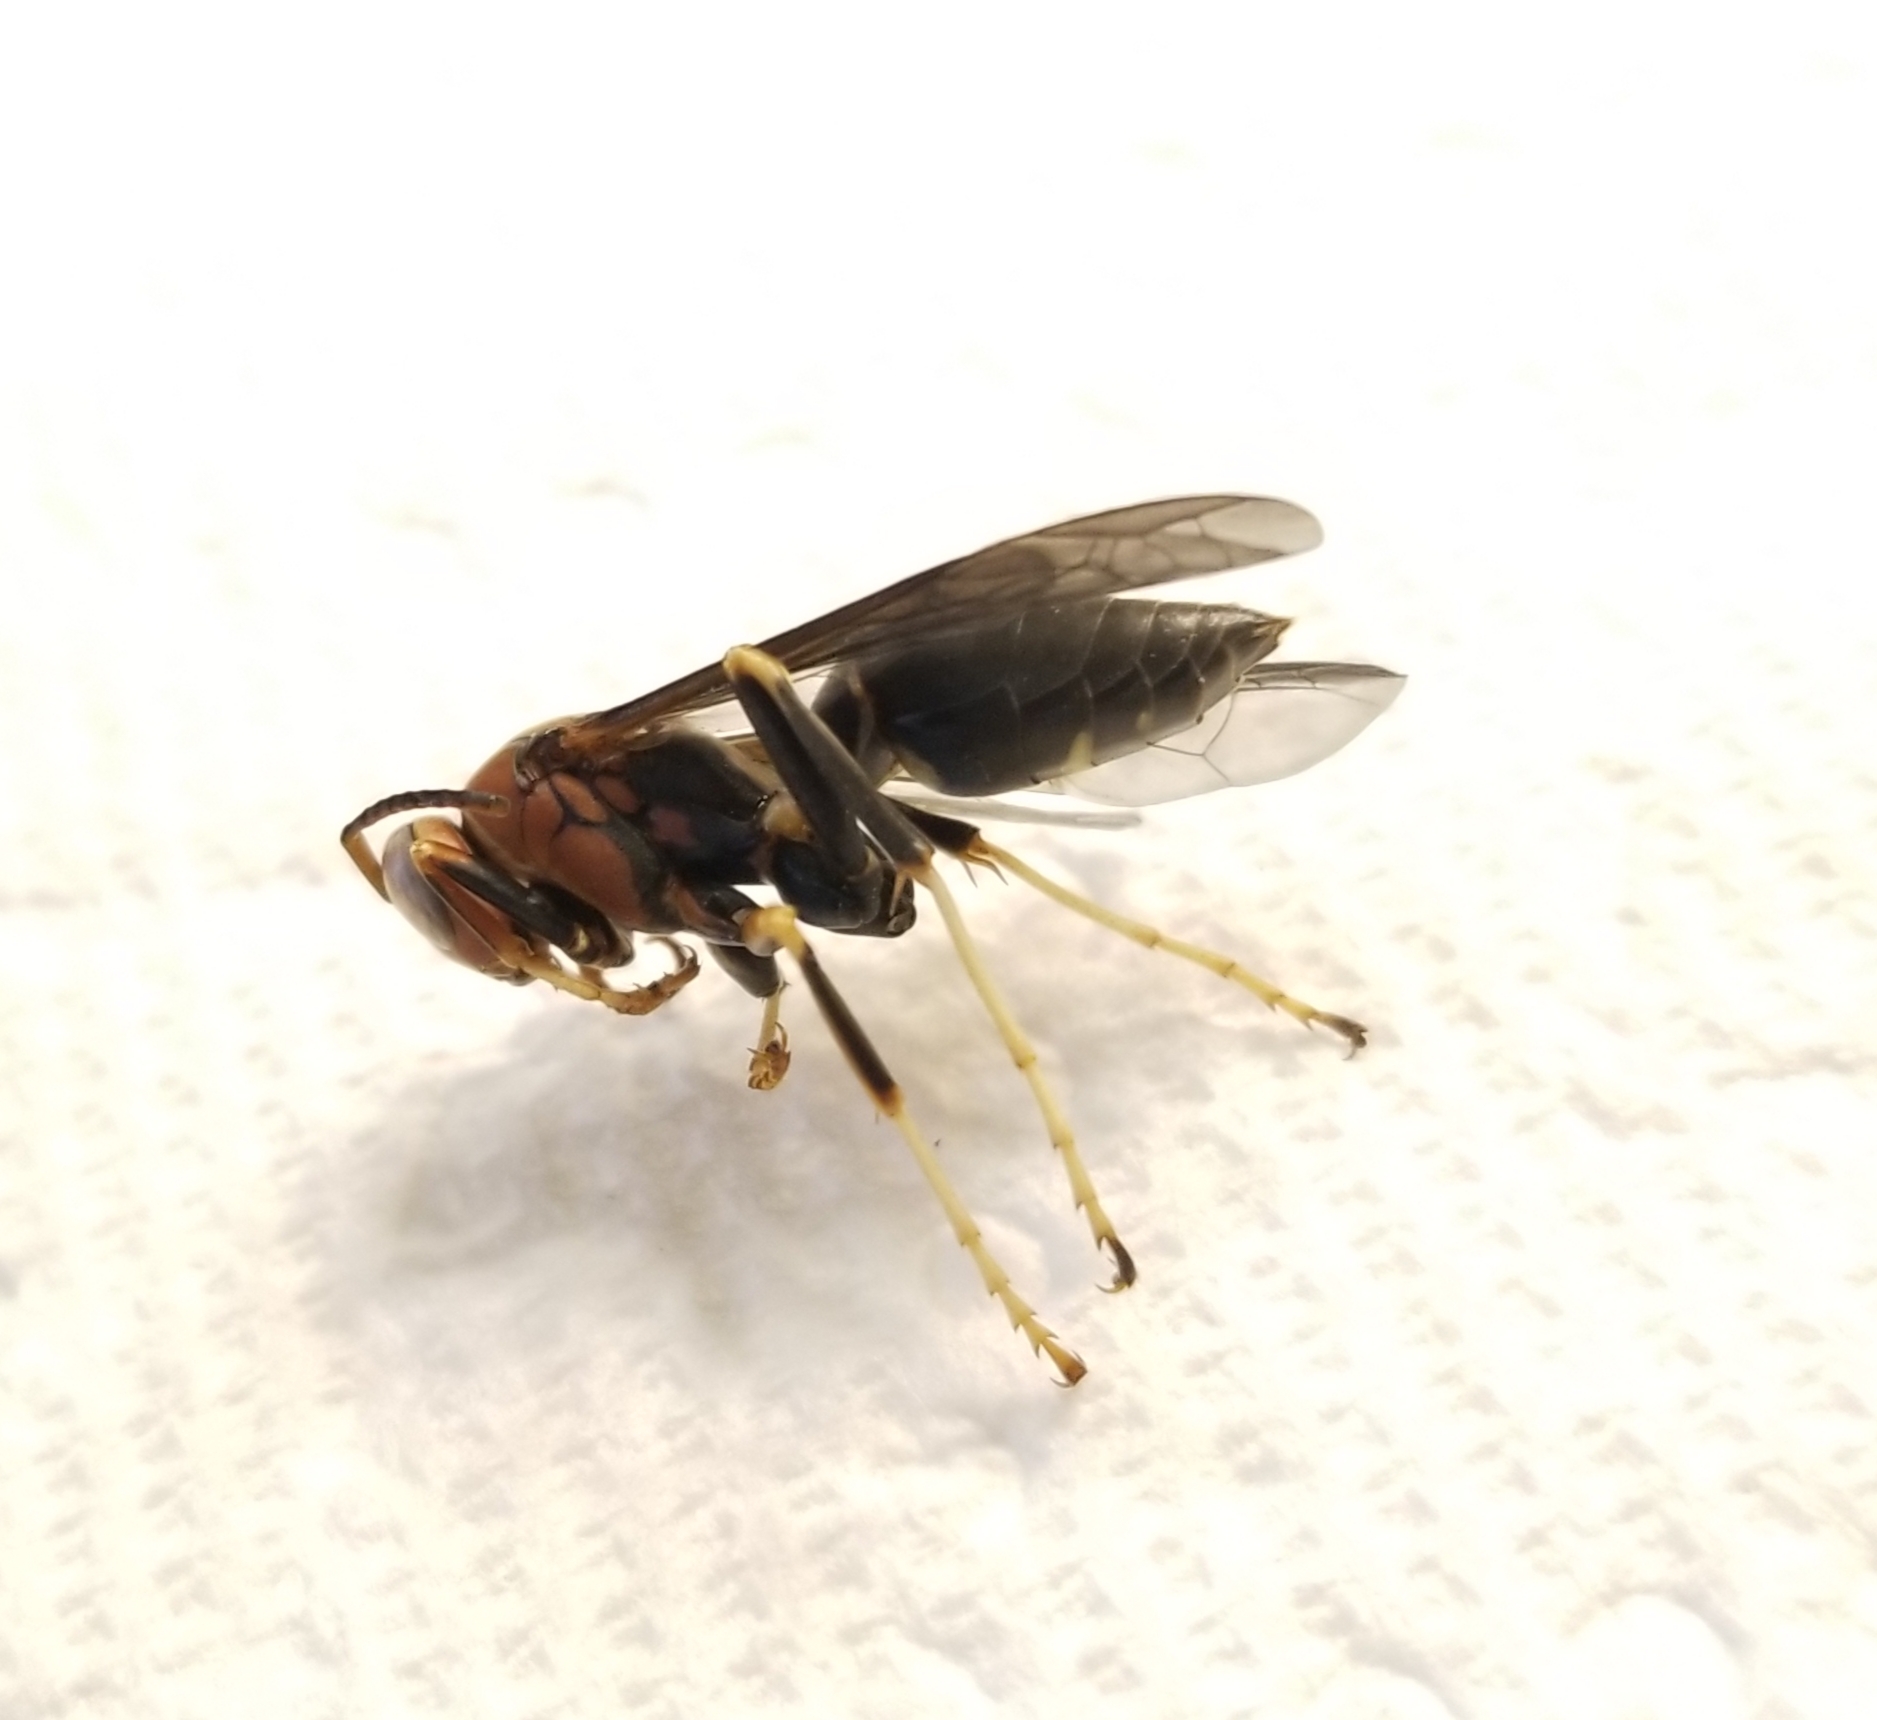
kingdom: Animalia
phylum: Arthropoda
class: Insecta
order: Hymenoptera
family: Eumenidae
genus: Polistes
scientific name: Polistes metricus
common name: Metric paper wasp
